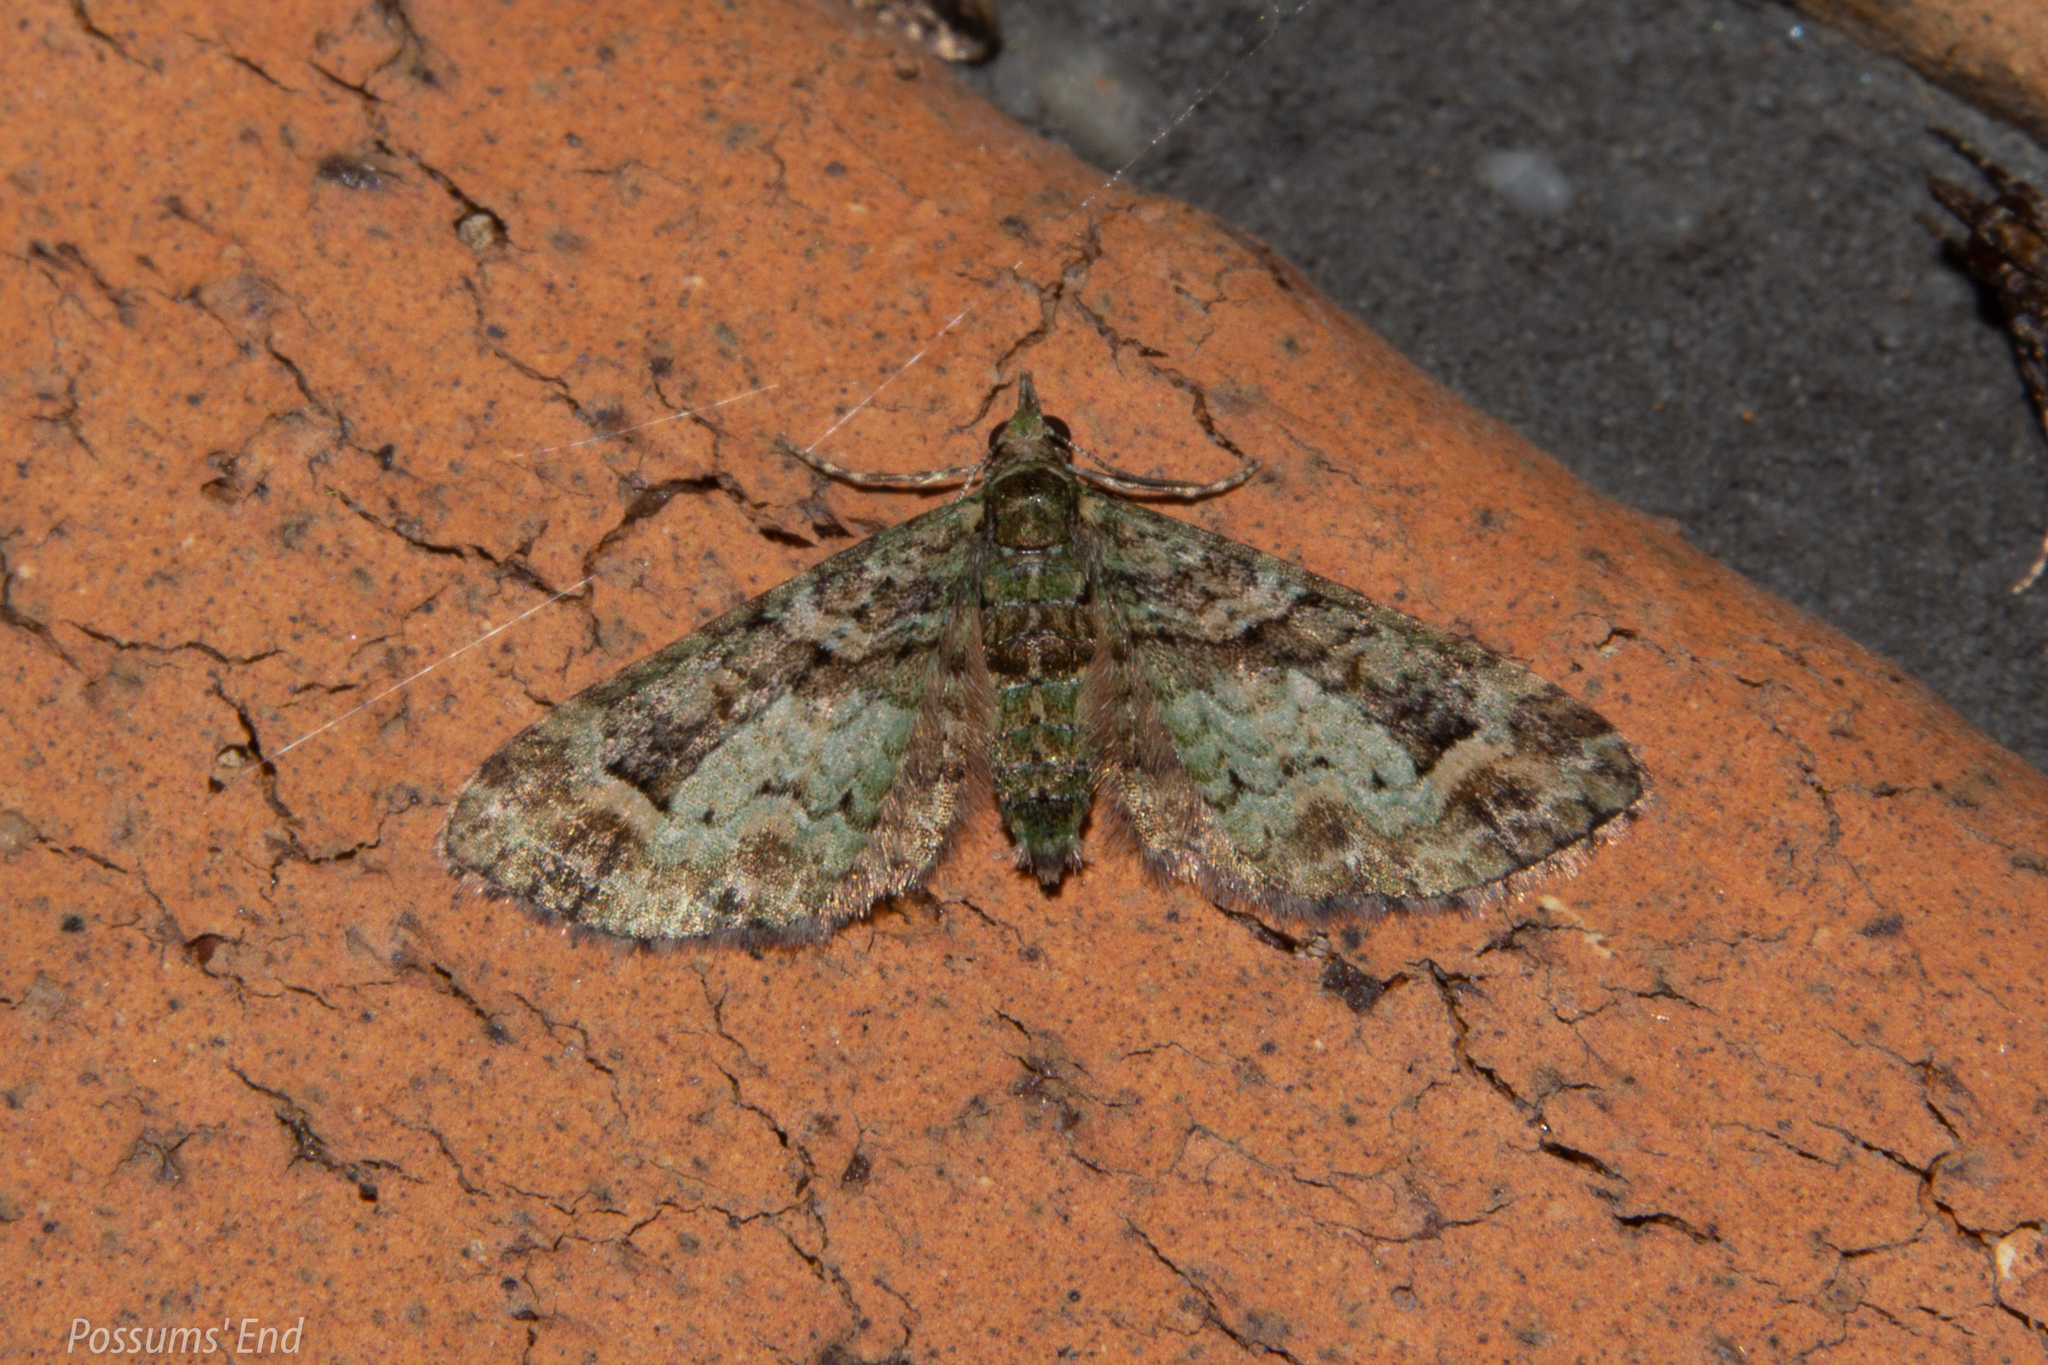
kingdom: Animalia
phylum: Arthropoda
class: Insecta
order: Lepidoptera
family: Geometridae
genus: Idaea
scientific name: Idaea mutanda
